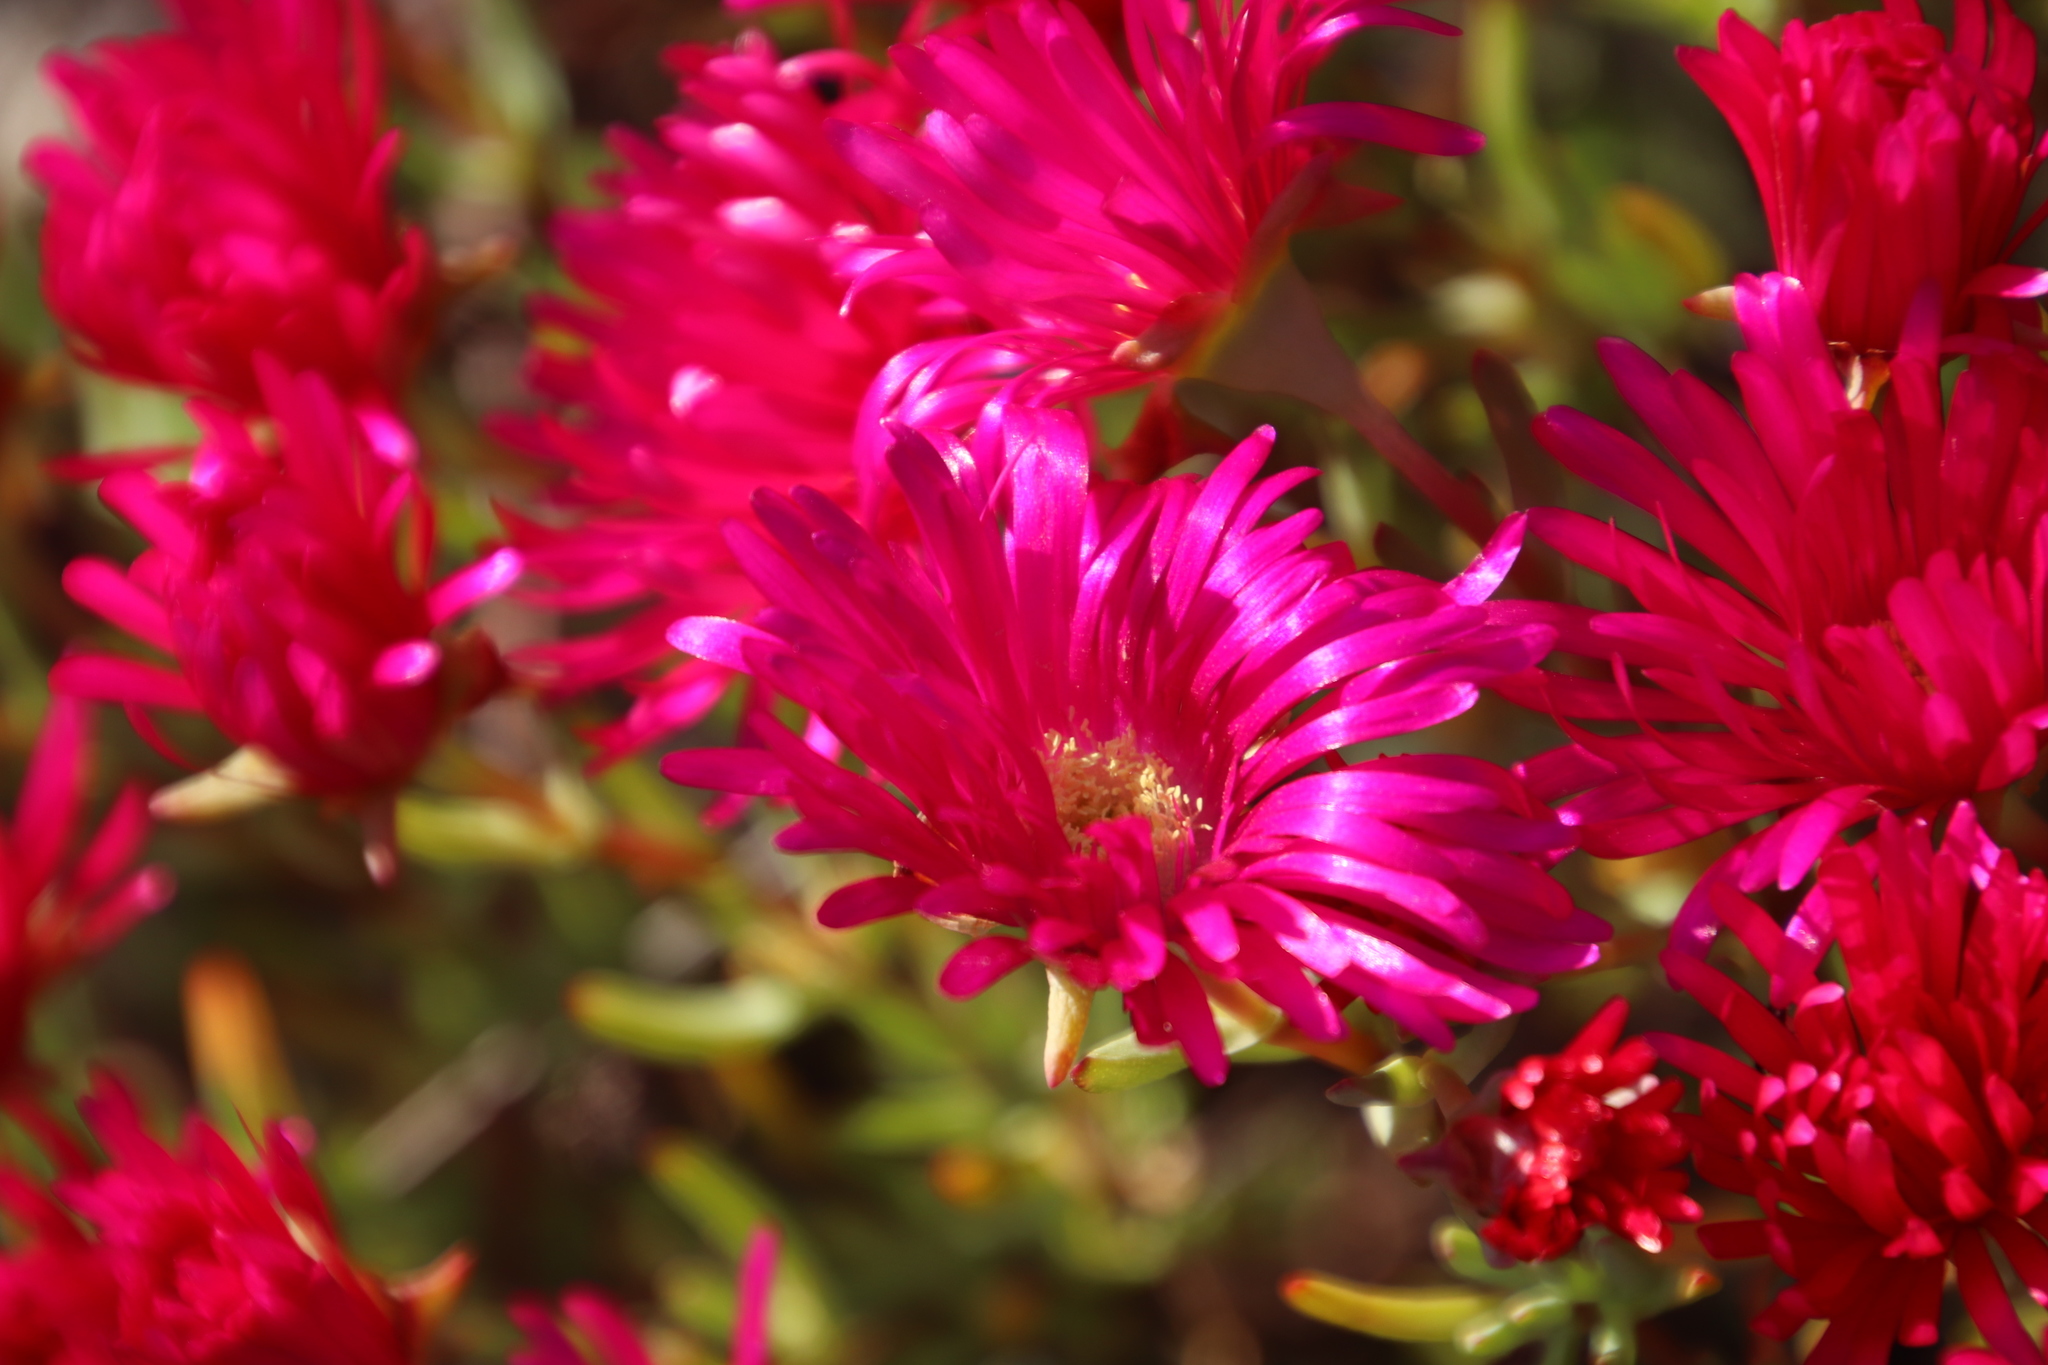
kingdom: Plantae
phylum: Tracheophyta
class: Magnoliopsida
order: Caryophyllales
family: Aizoaceae
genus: Lampranthus
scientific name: Lampranthus stipulaceus
